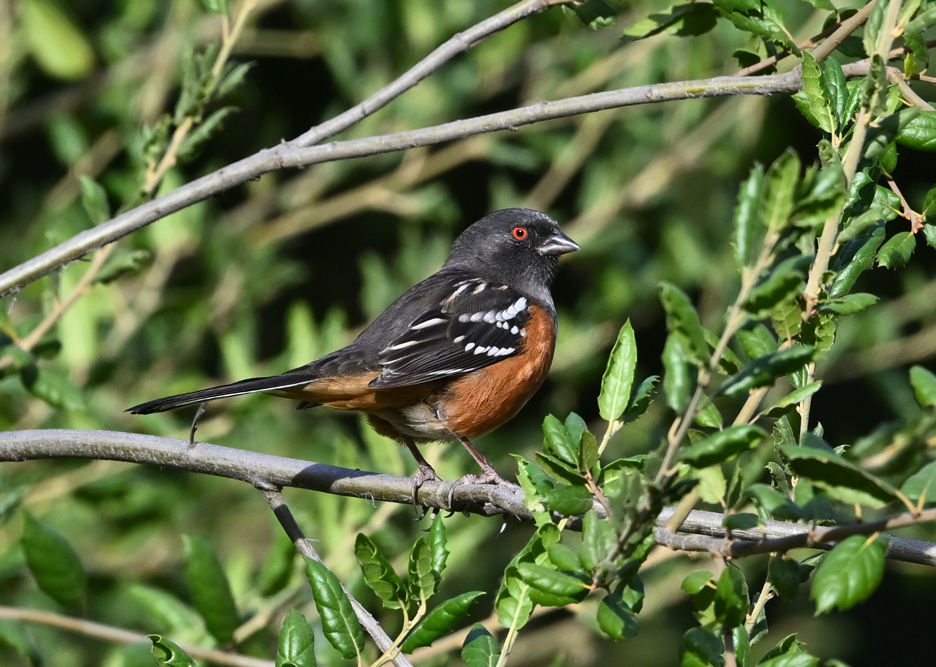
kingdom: Animalia
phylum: Chordata
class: Aves
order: Passeriformes
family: Passerellidae
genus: Pipilo
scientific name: Pipilo maculatus
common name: Spotted towhee
